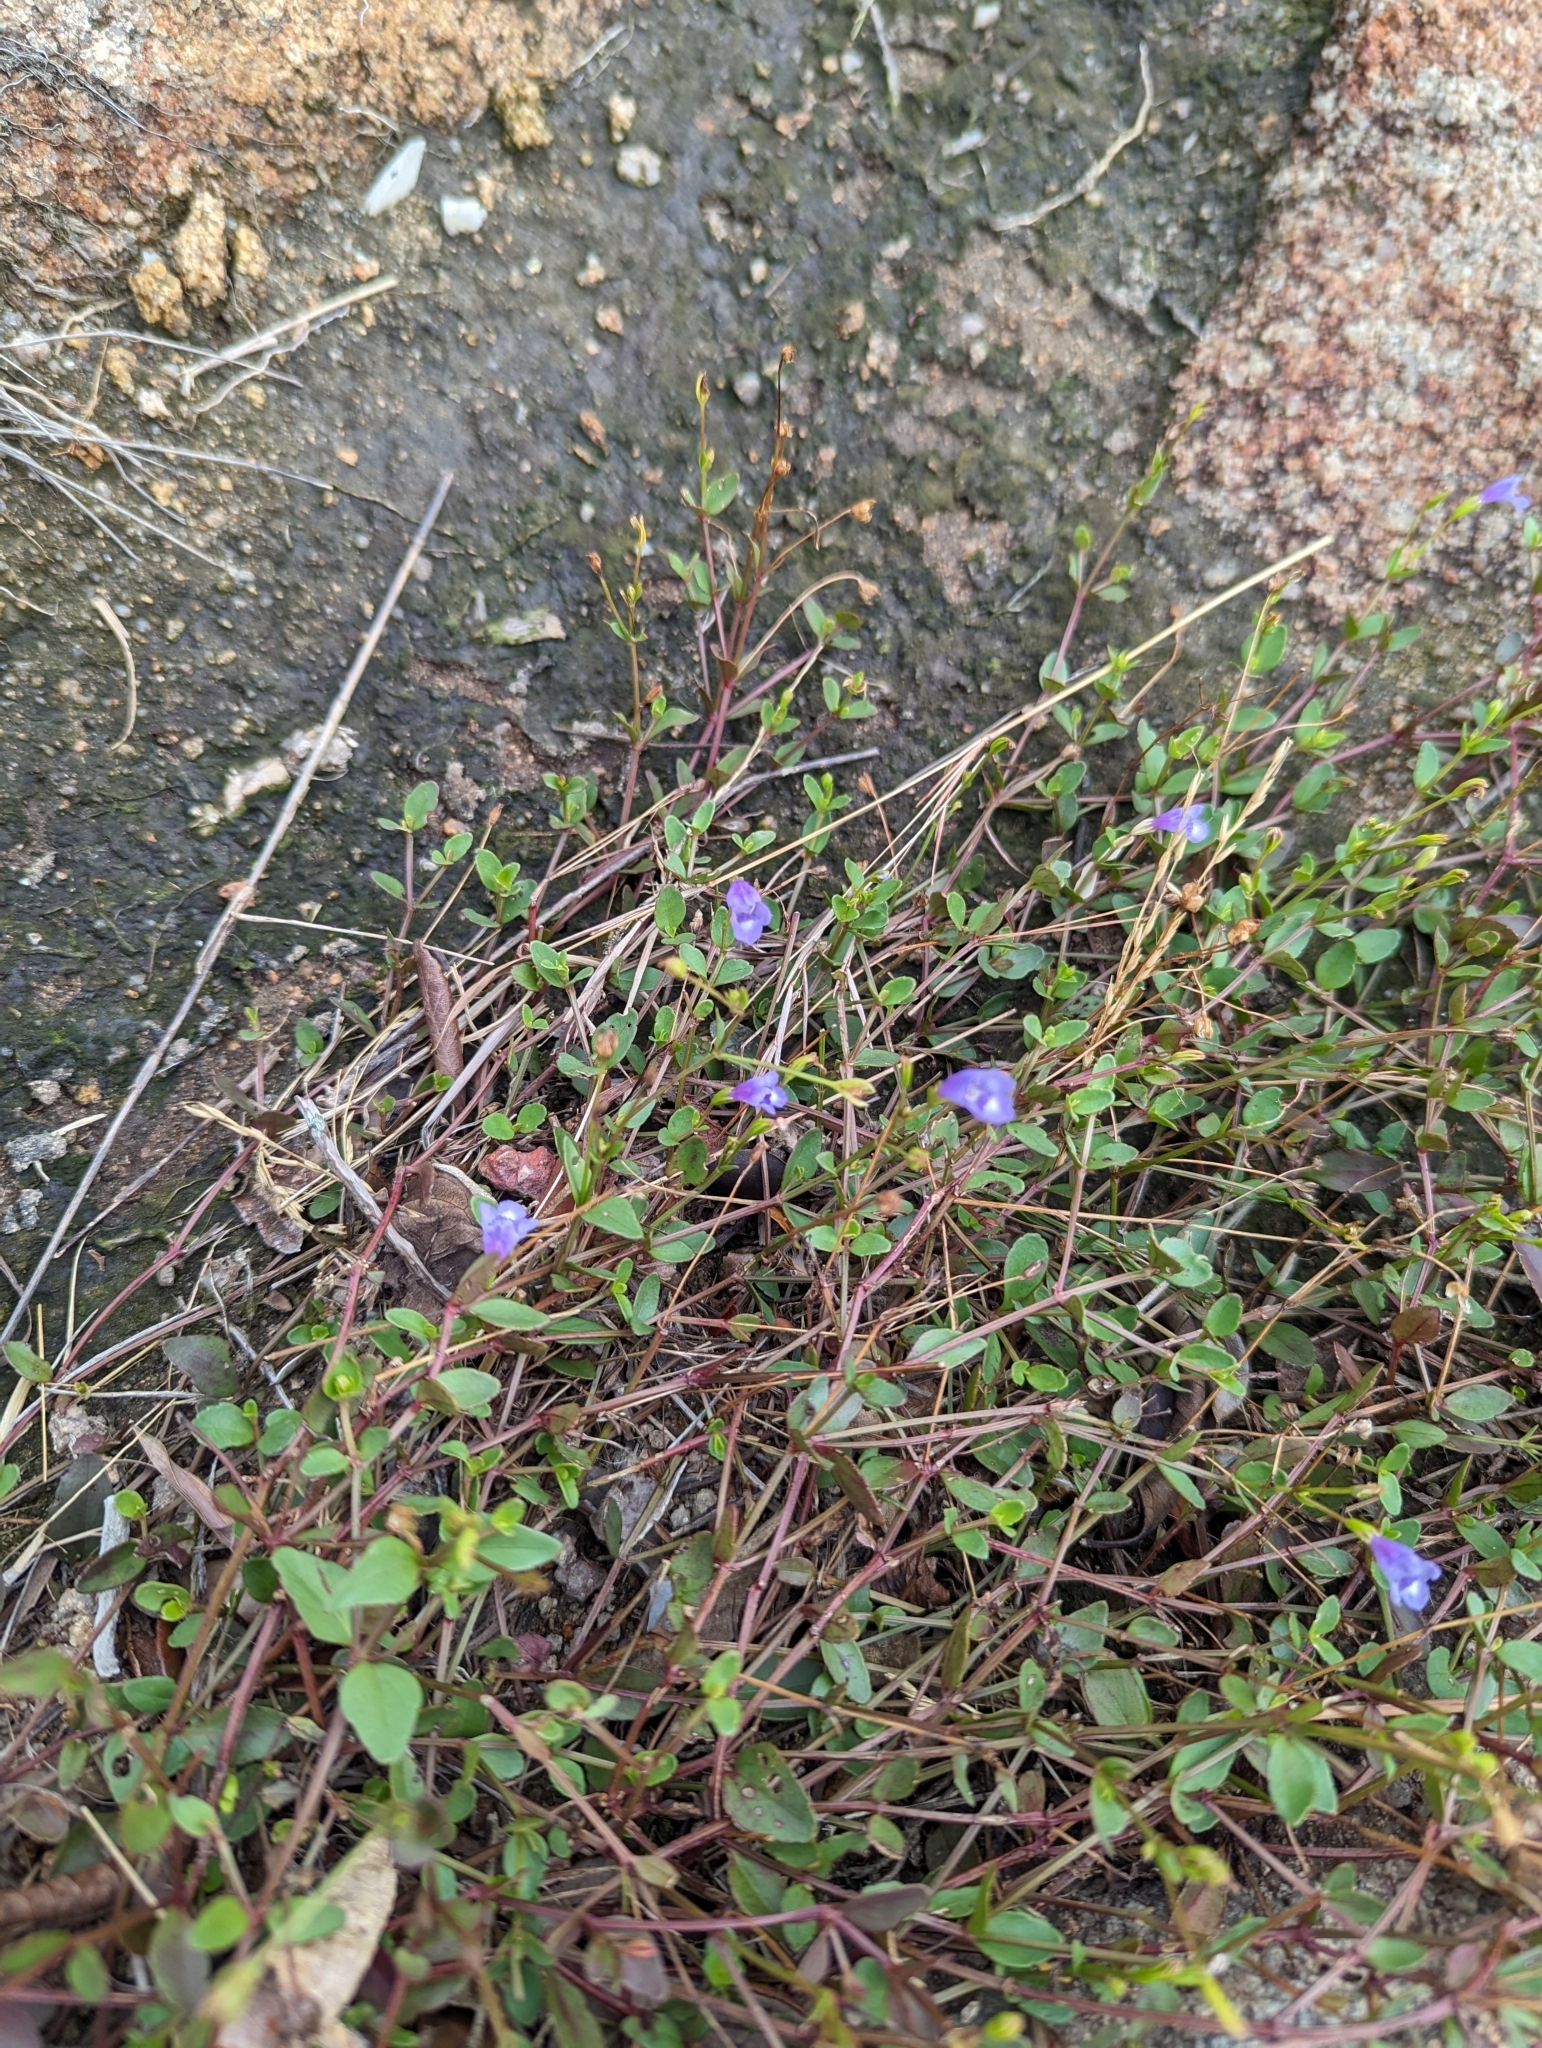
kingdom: Plantae
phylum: Tracheophyta
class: Magnoliopsida
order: Lamiales
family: Linderniaceae
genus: Torenia
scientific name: Torenia oblonga
